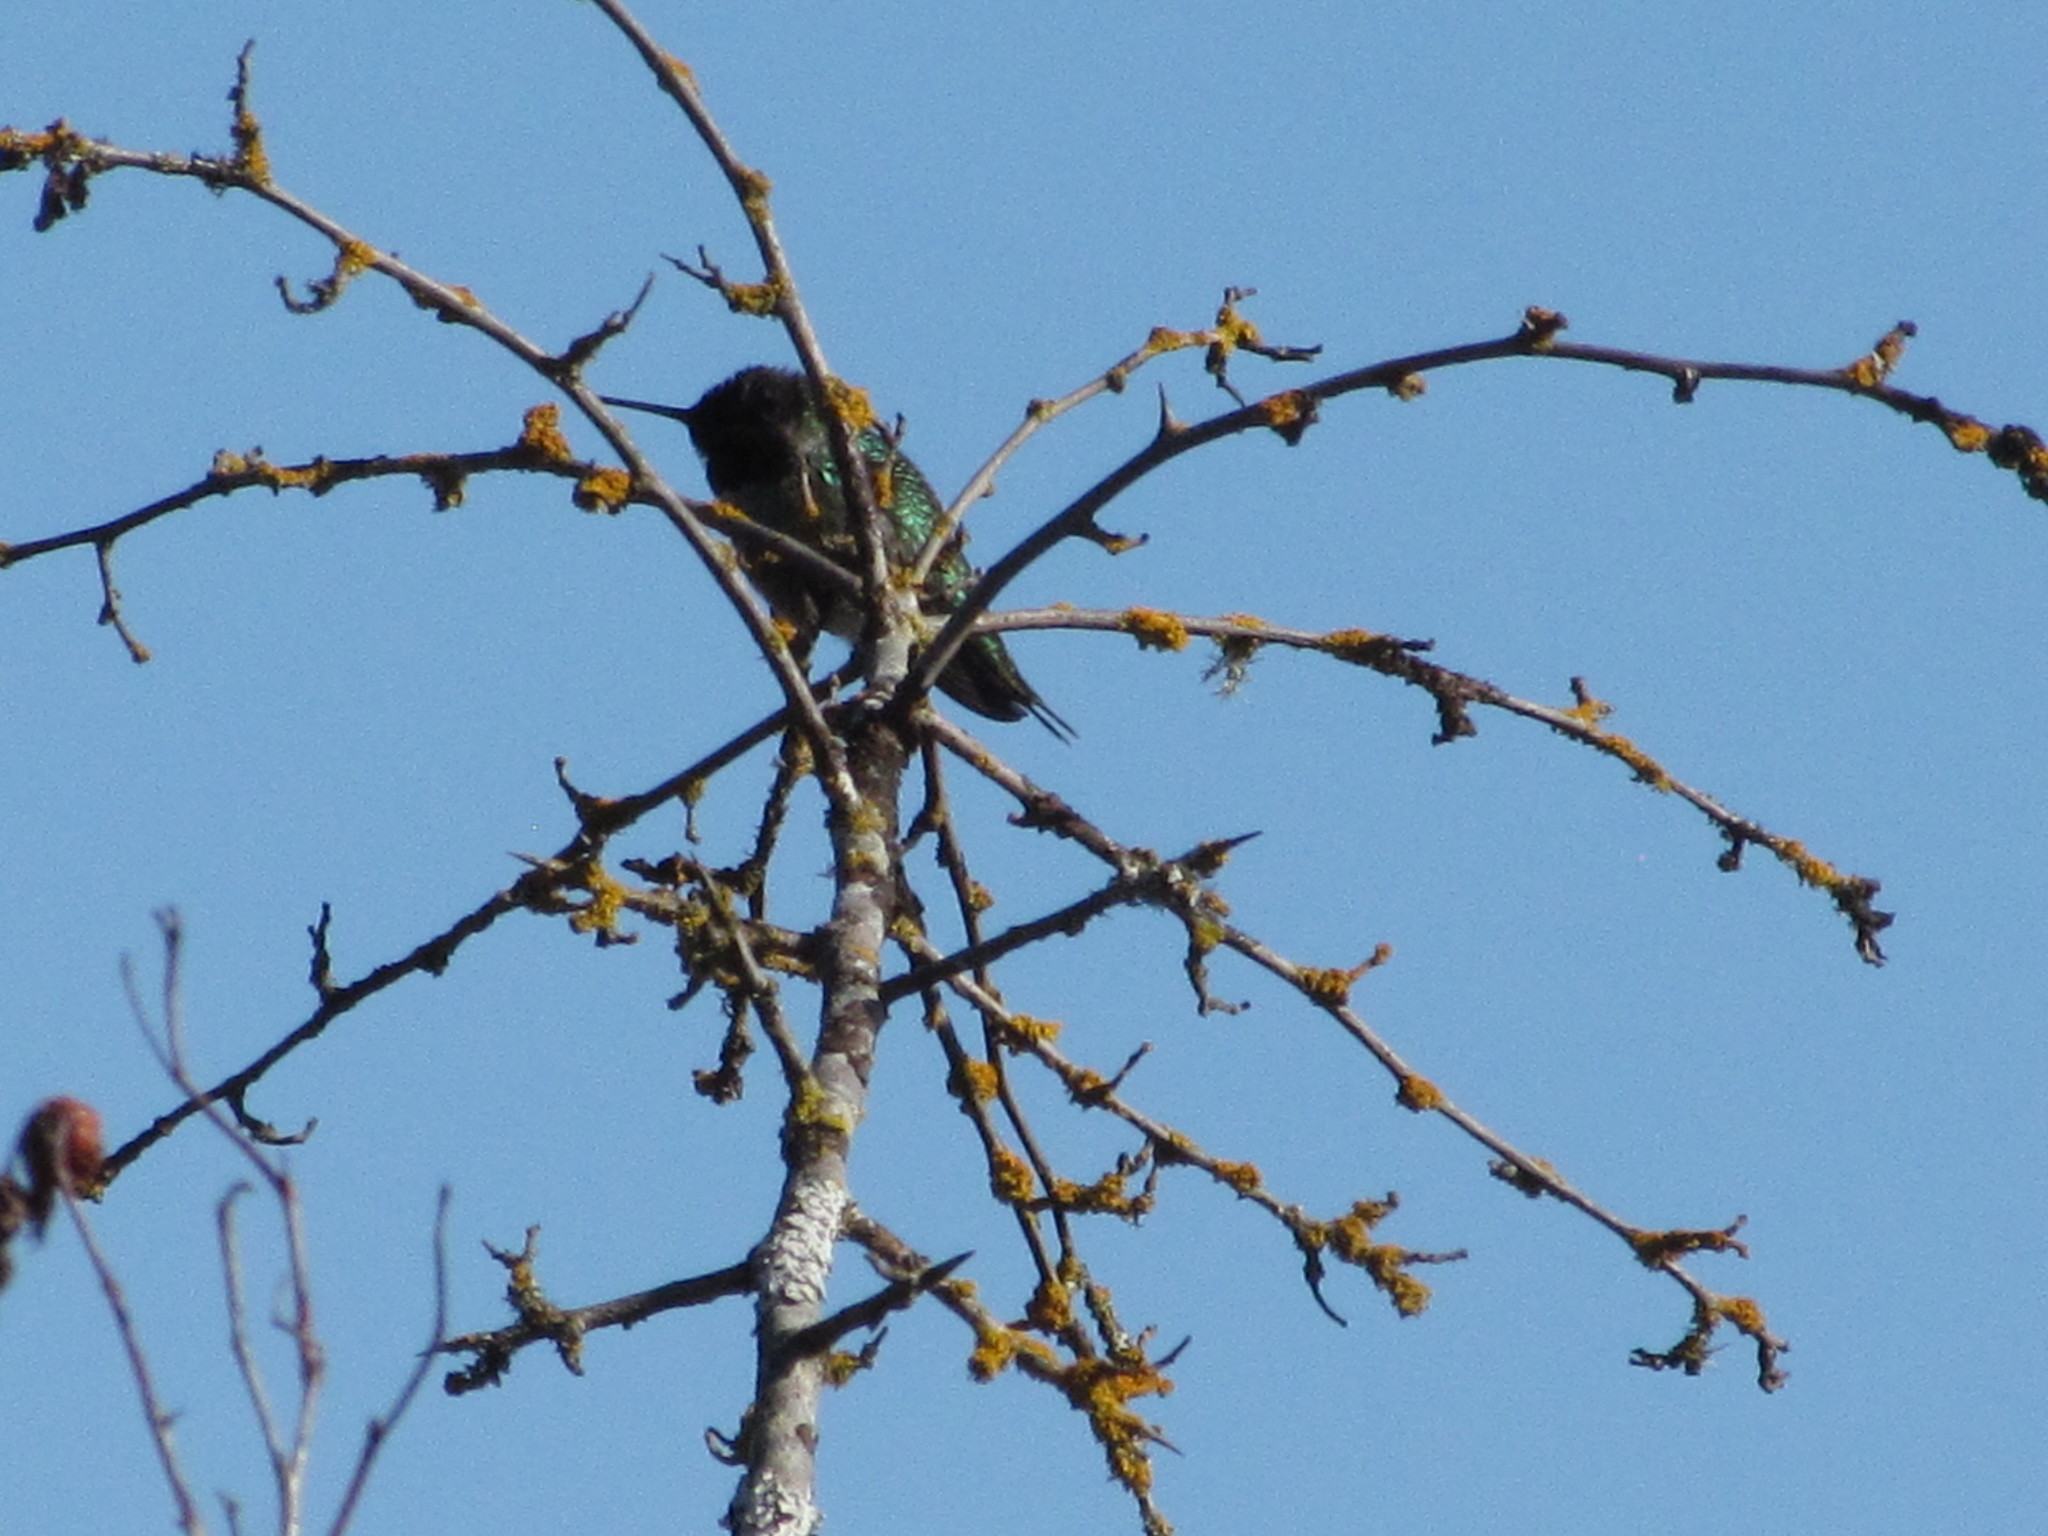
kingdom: Animalia
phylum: Chordata
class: Aves
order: Apodiformes
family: Trochilidae
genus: Calypte
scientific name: Calypte anna
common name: Anna's hummingbird
